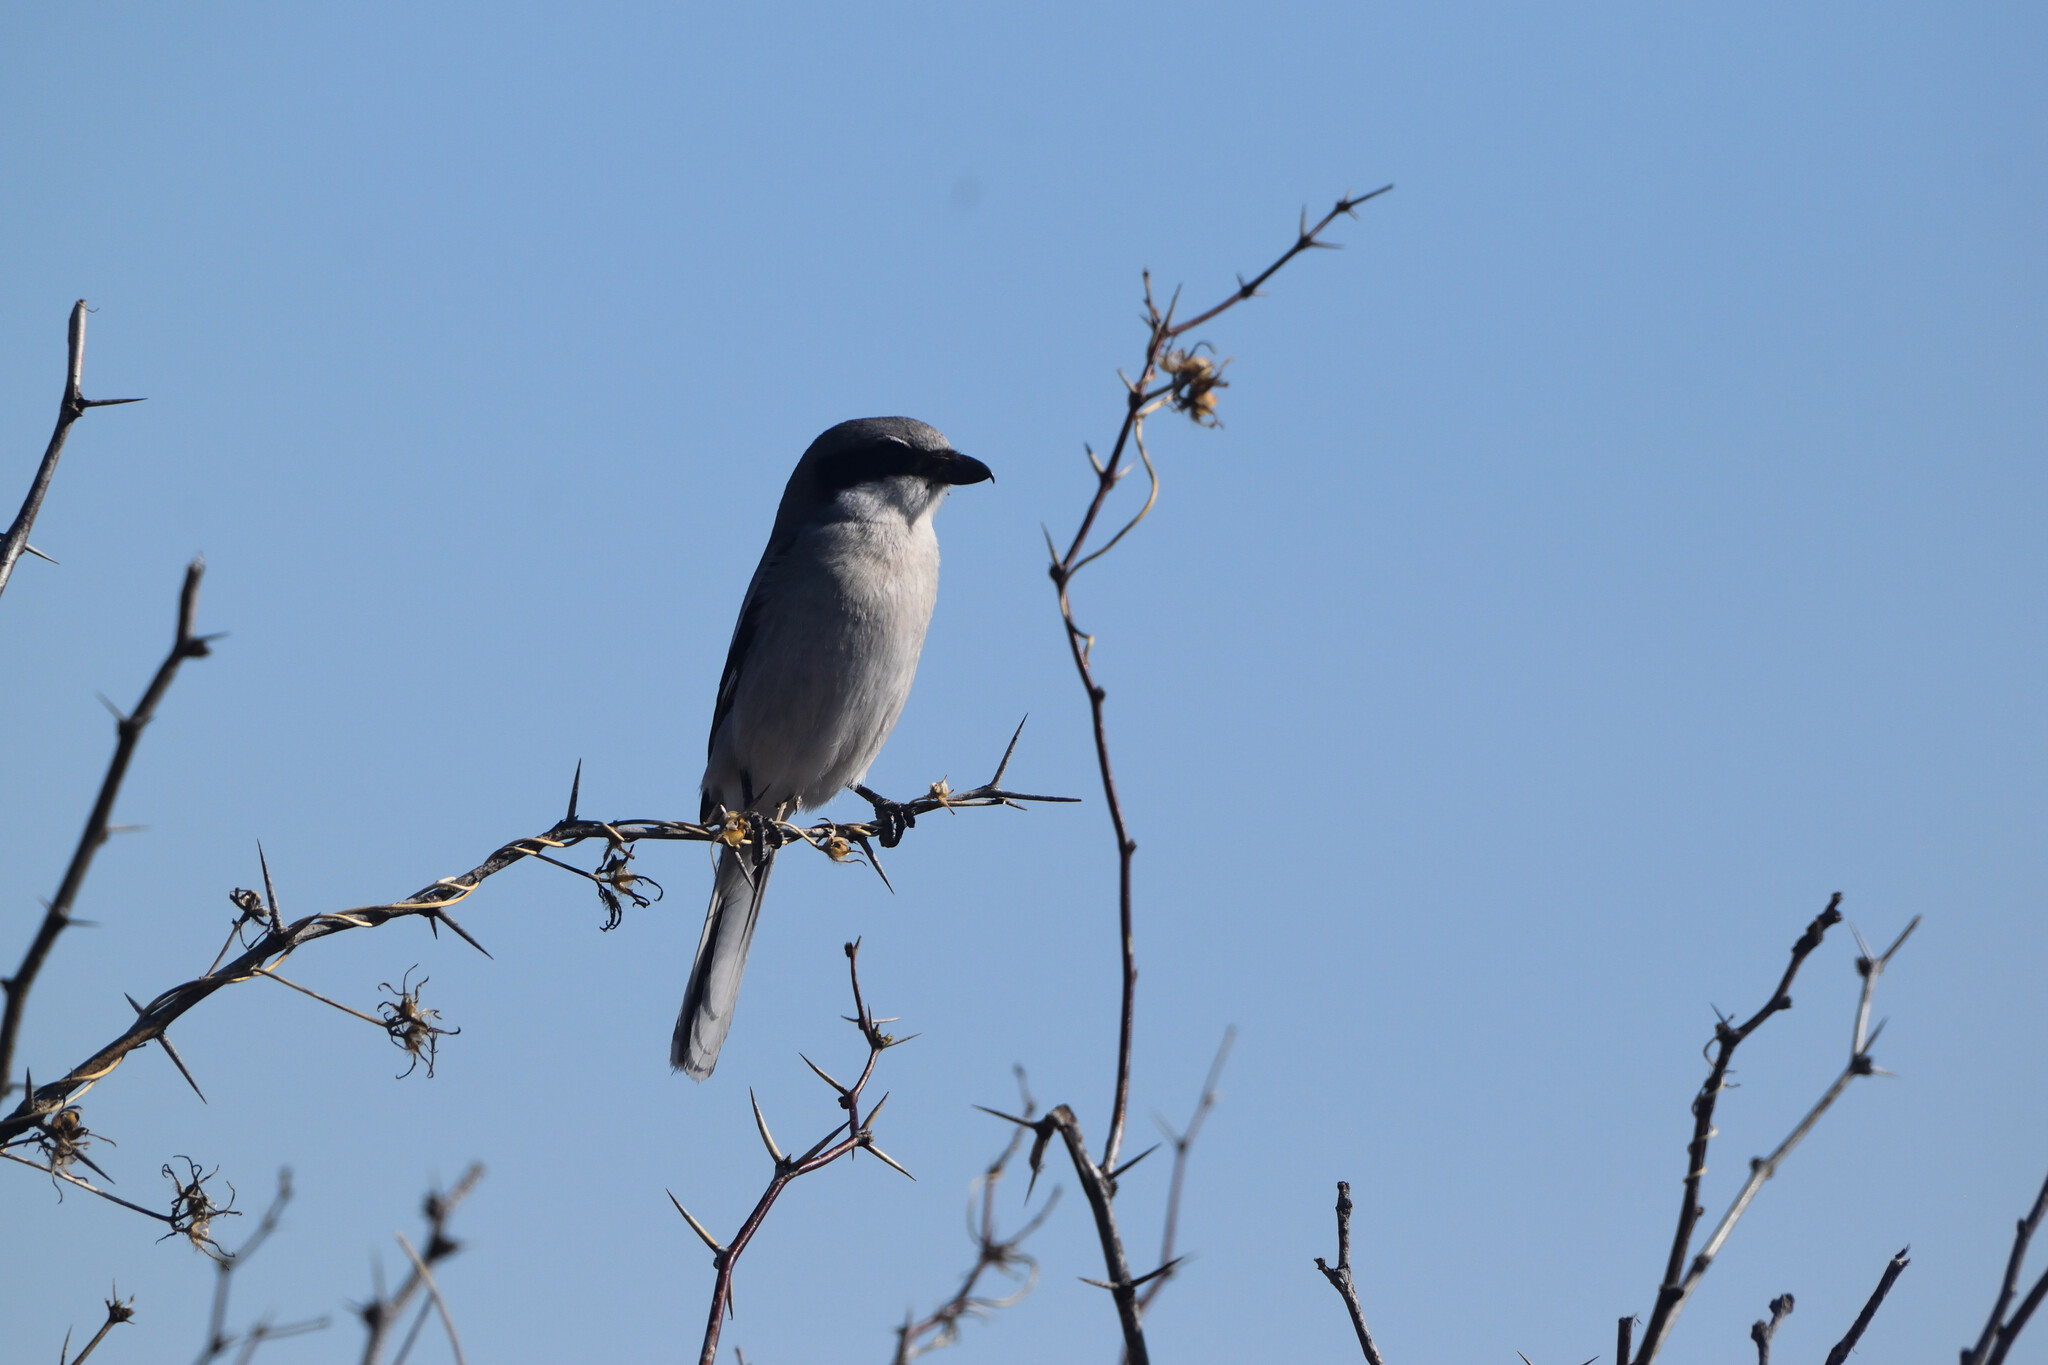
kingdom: Animalia
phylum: Chordata
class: Aves
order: Passeriformes
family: Laniidae
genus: Lanius
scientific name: Lanius ludovicianus
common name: Loggerhead shrike
